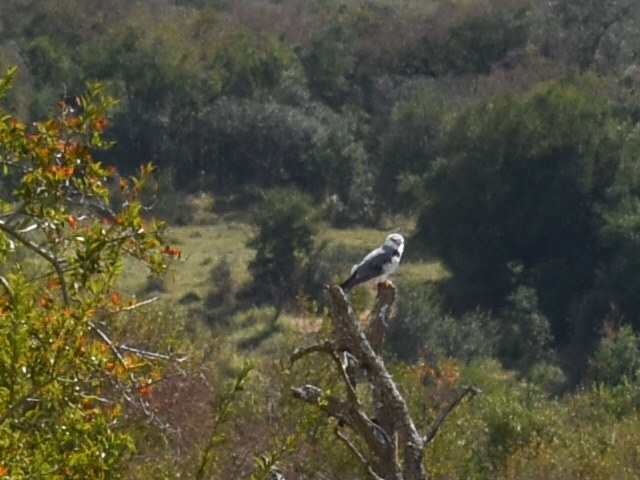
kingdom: Animalia
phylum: Chordata
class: Aves
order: Accipitriformes
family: Accipitridae
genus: Elanus
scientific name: Elanus caeruleus
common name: Black-winged kite
